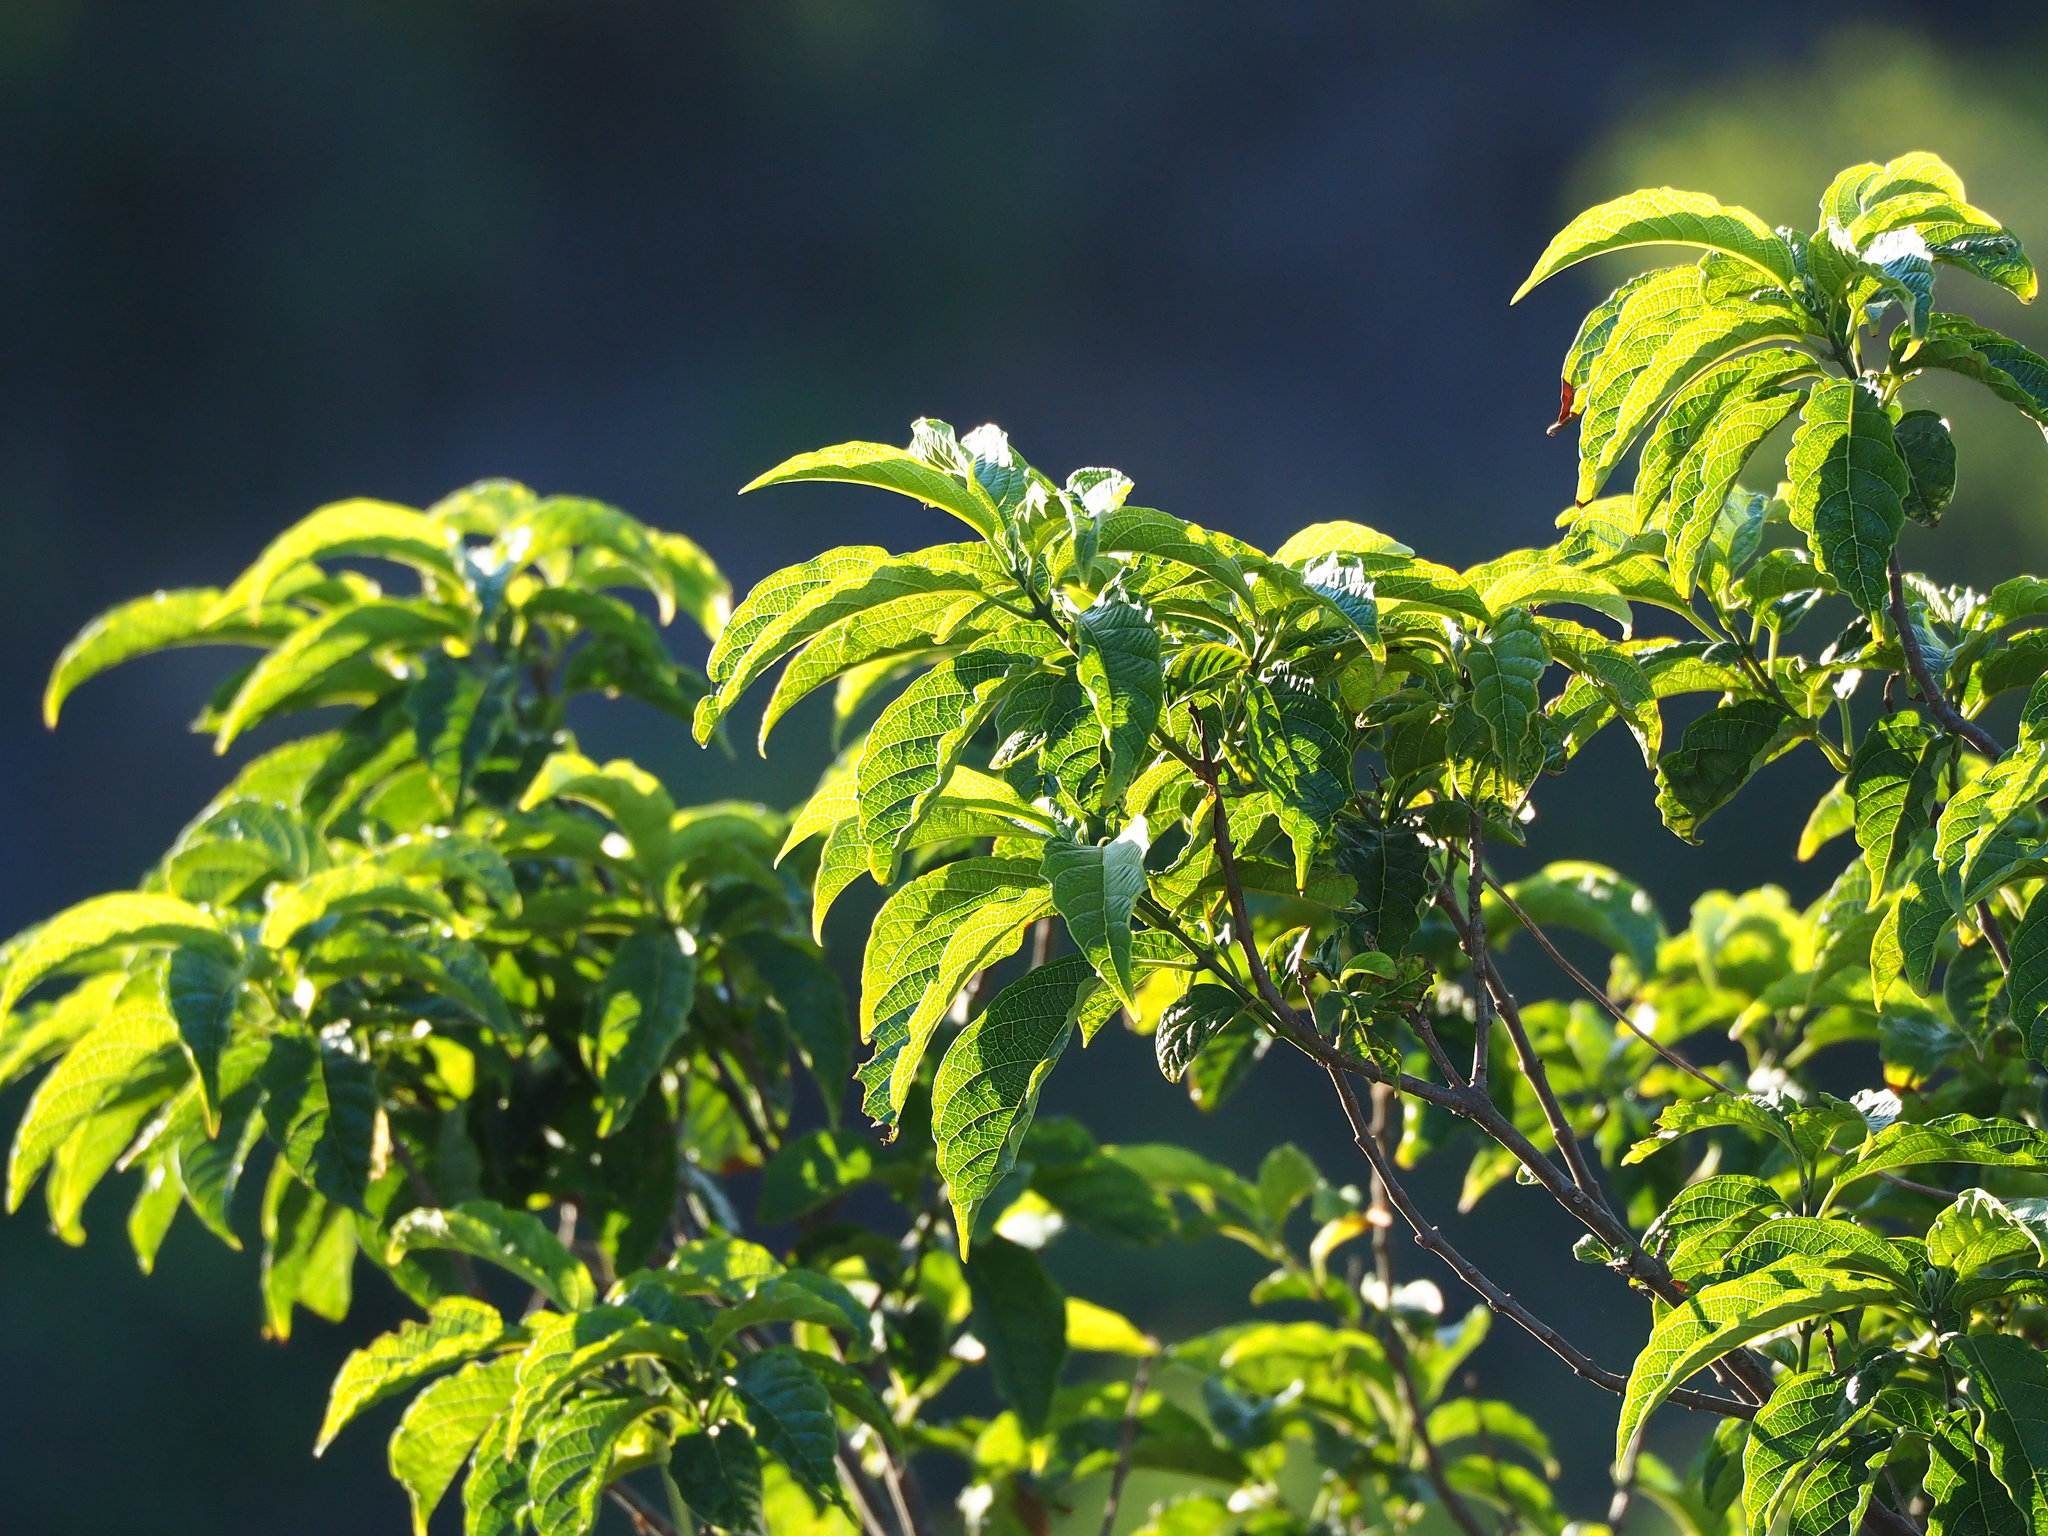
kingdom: Plantae
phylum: Tracheophyta
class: Magnoliopsida
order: Lamiales
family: Lamiaceae
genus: Clerodendrum
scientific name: Clerodendrum cyrtophyllum
